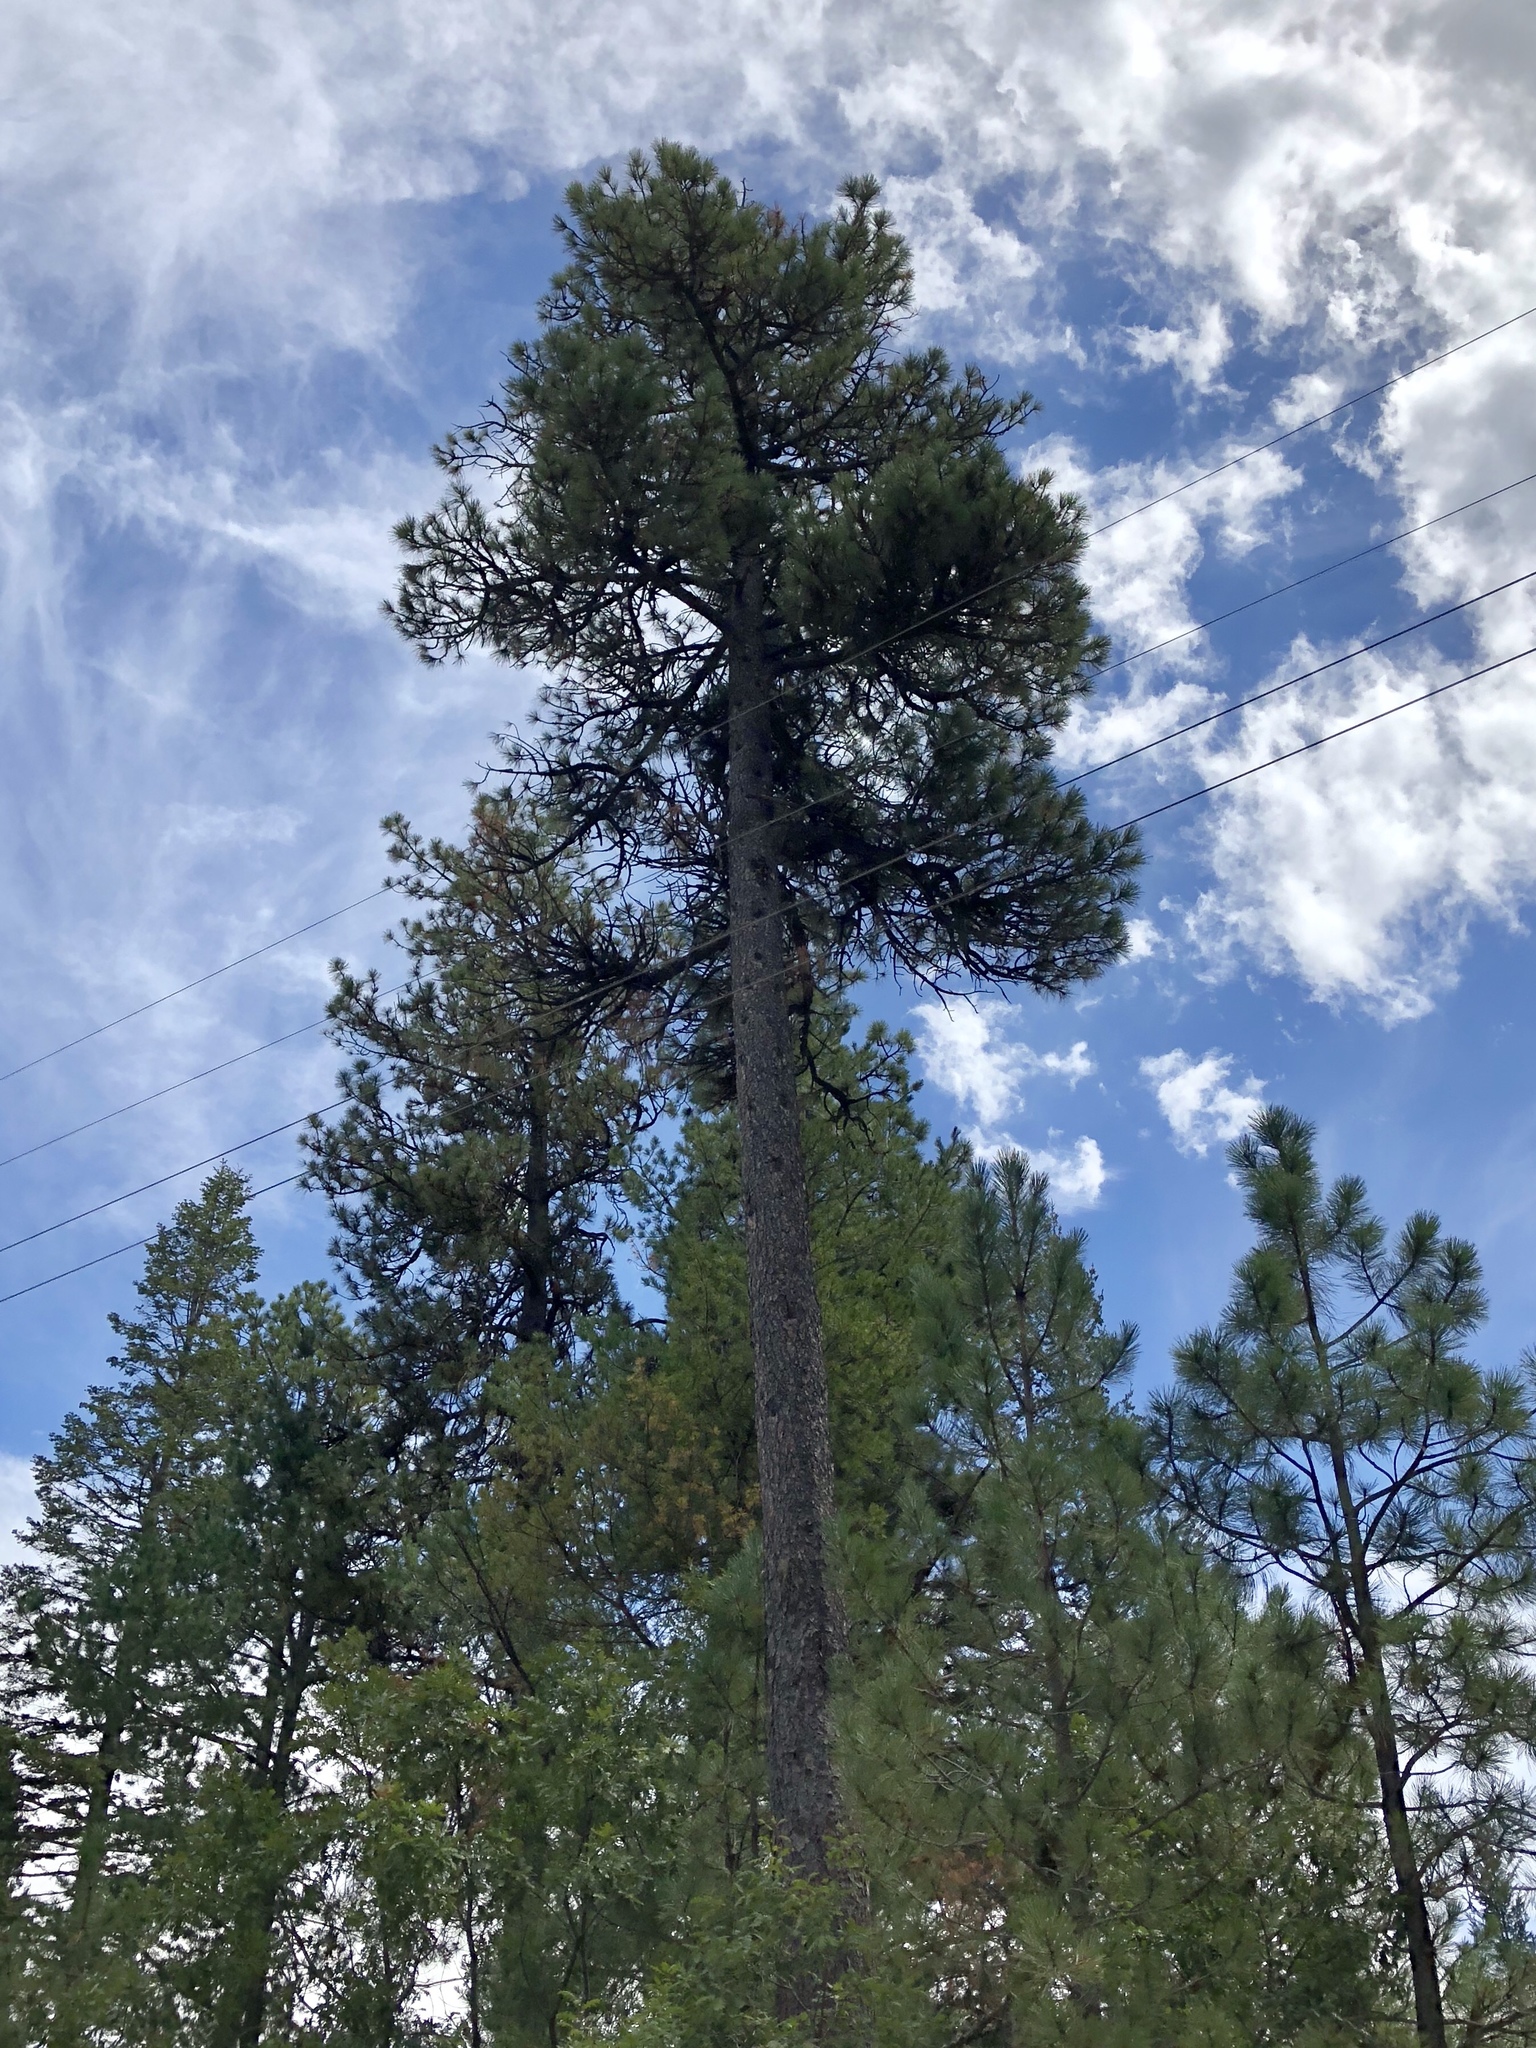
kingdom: Plantae
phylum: Tracheophyta
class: Pinopsida
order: Pinales
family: Pinaceae
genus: Pinus
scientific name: Pinus strobiformis
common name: Southwestern white pine
